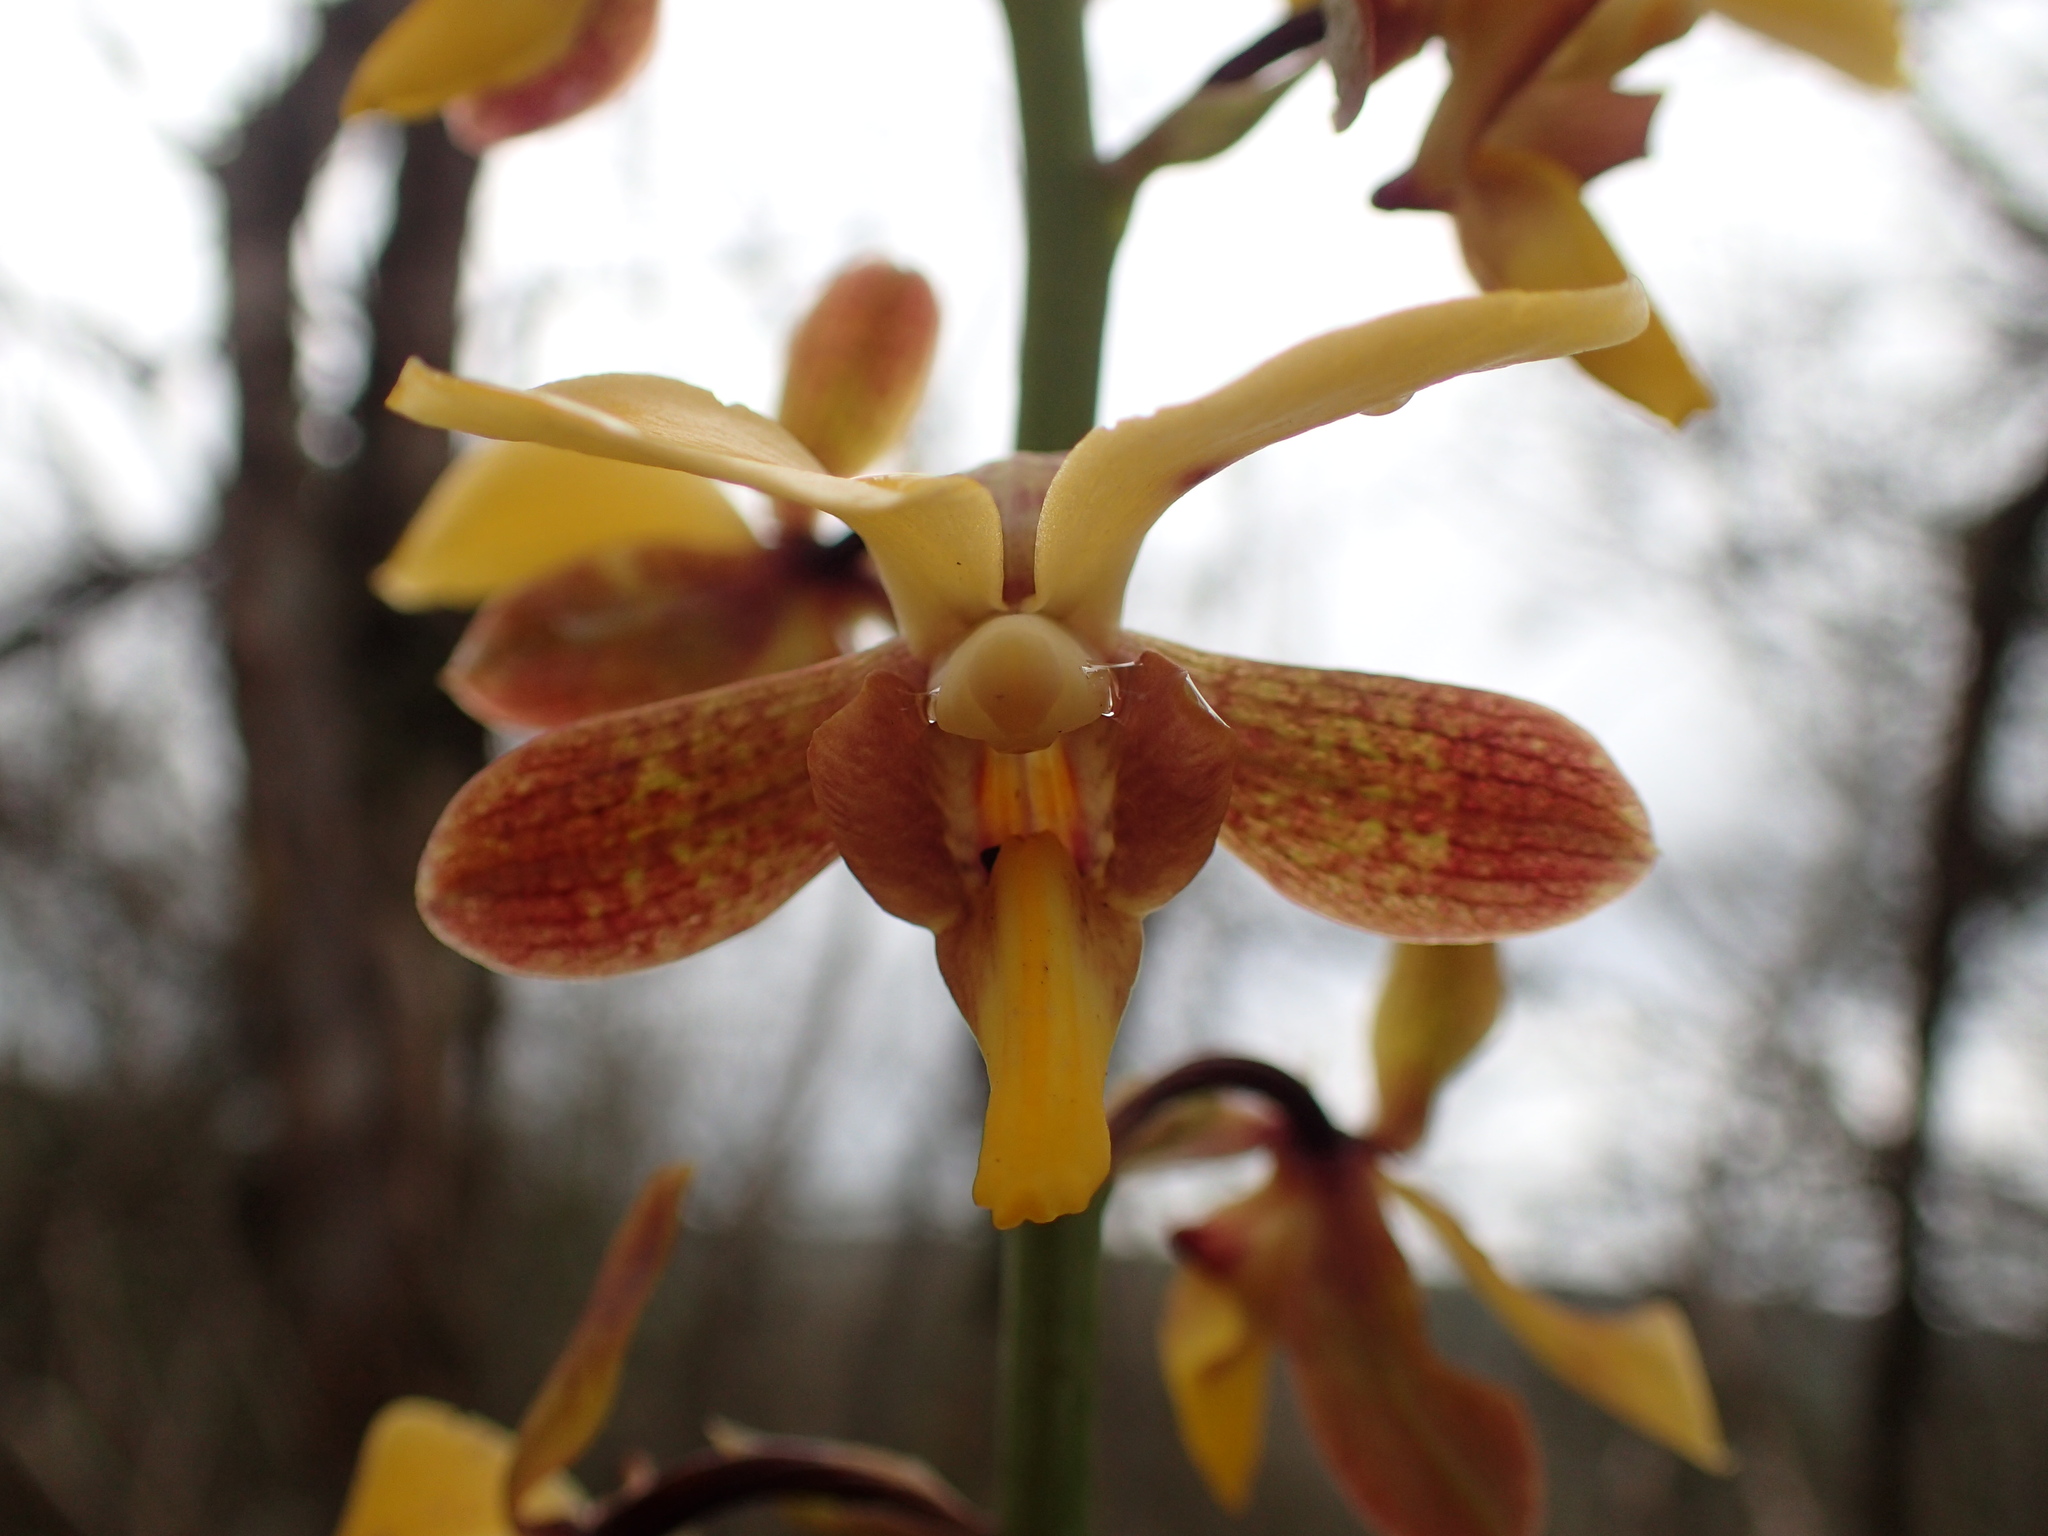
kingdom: Plantae
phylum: Tracheophyta
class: Liliopsida
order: Asparagales
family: Orchidaceae
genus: Eulophia
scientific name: Eulophia streptopetala
